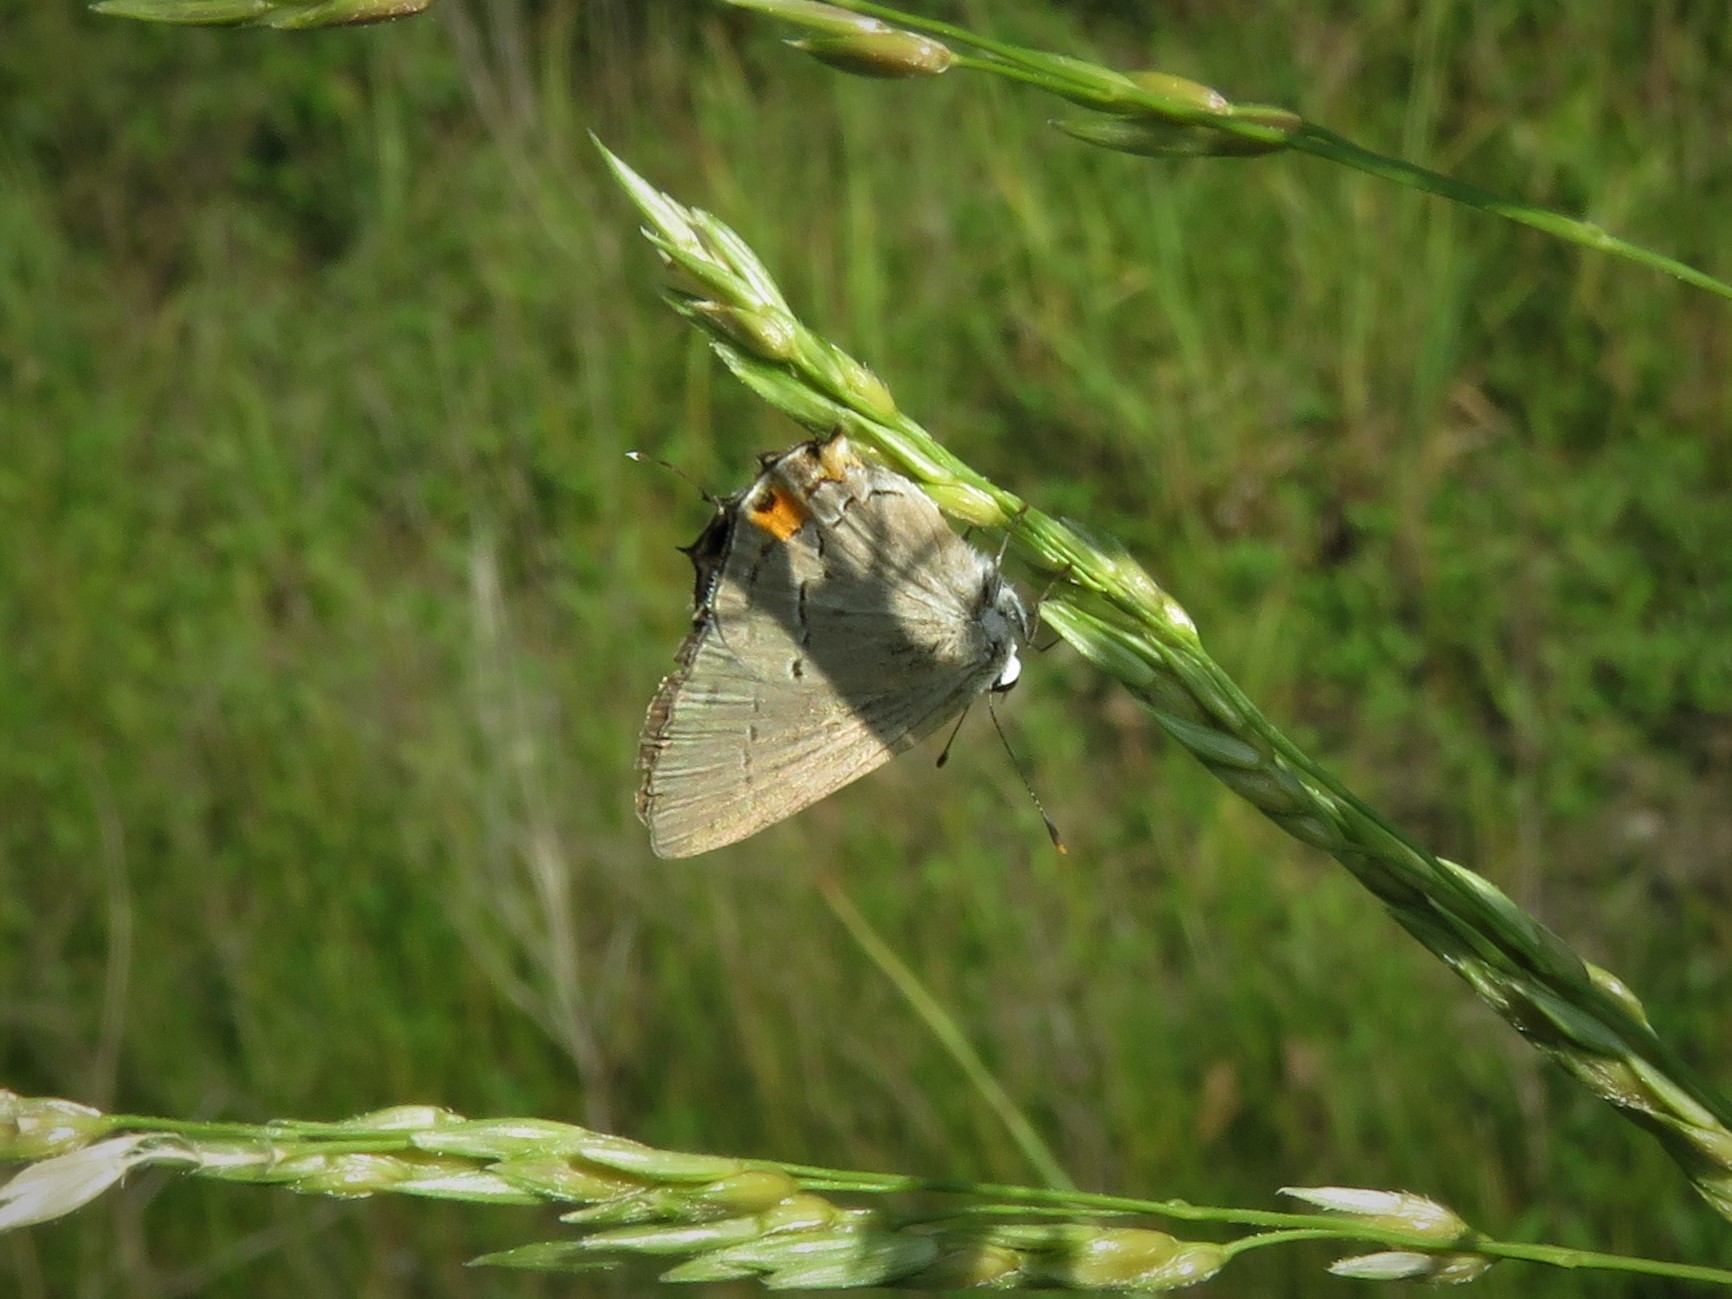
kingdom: Animalia
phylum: Arthropoda
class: Insecta
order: Lepidoptera
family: Lycaenidae
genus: Strymon
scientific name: Strymon melinus
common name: Gray hairstreak
